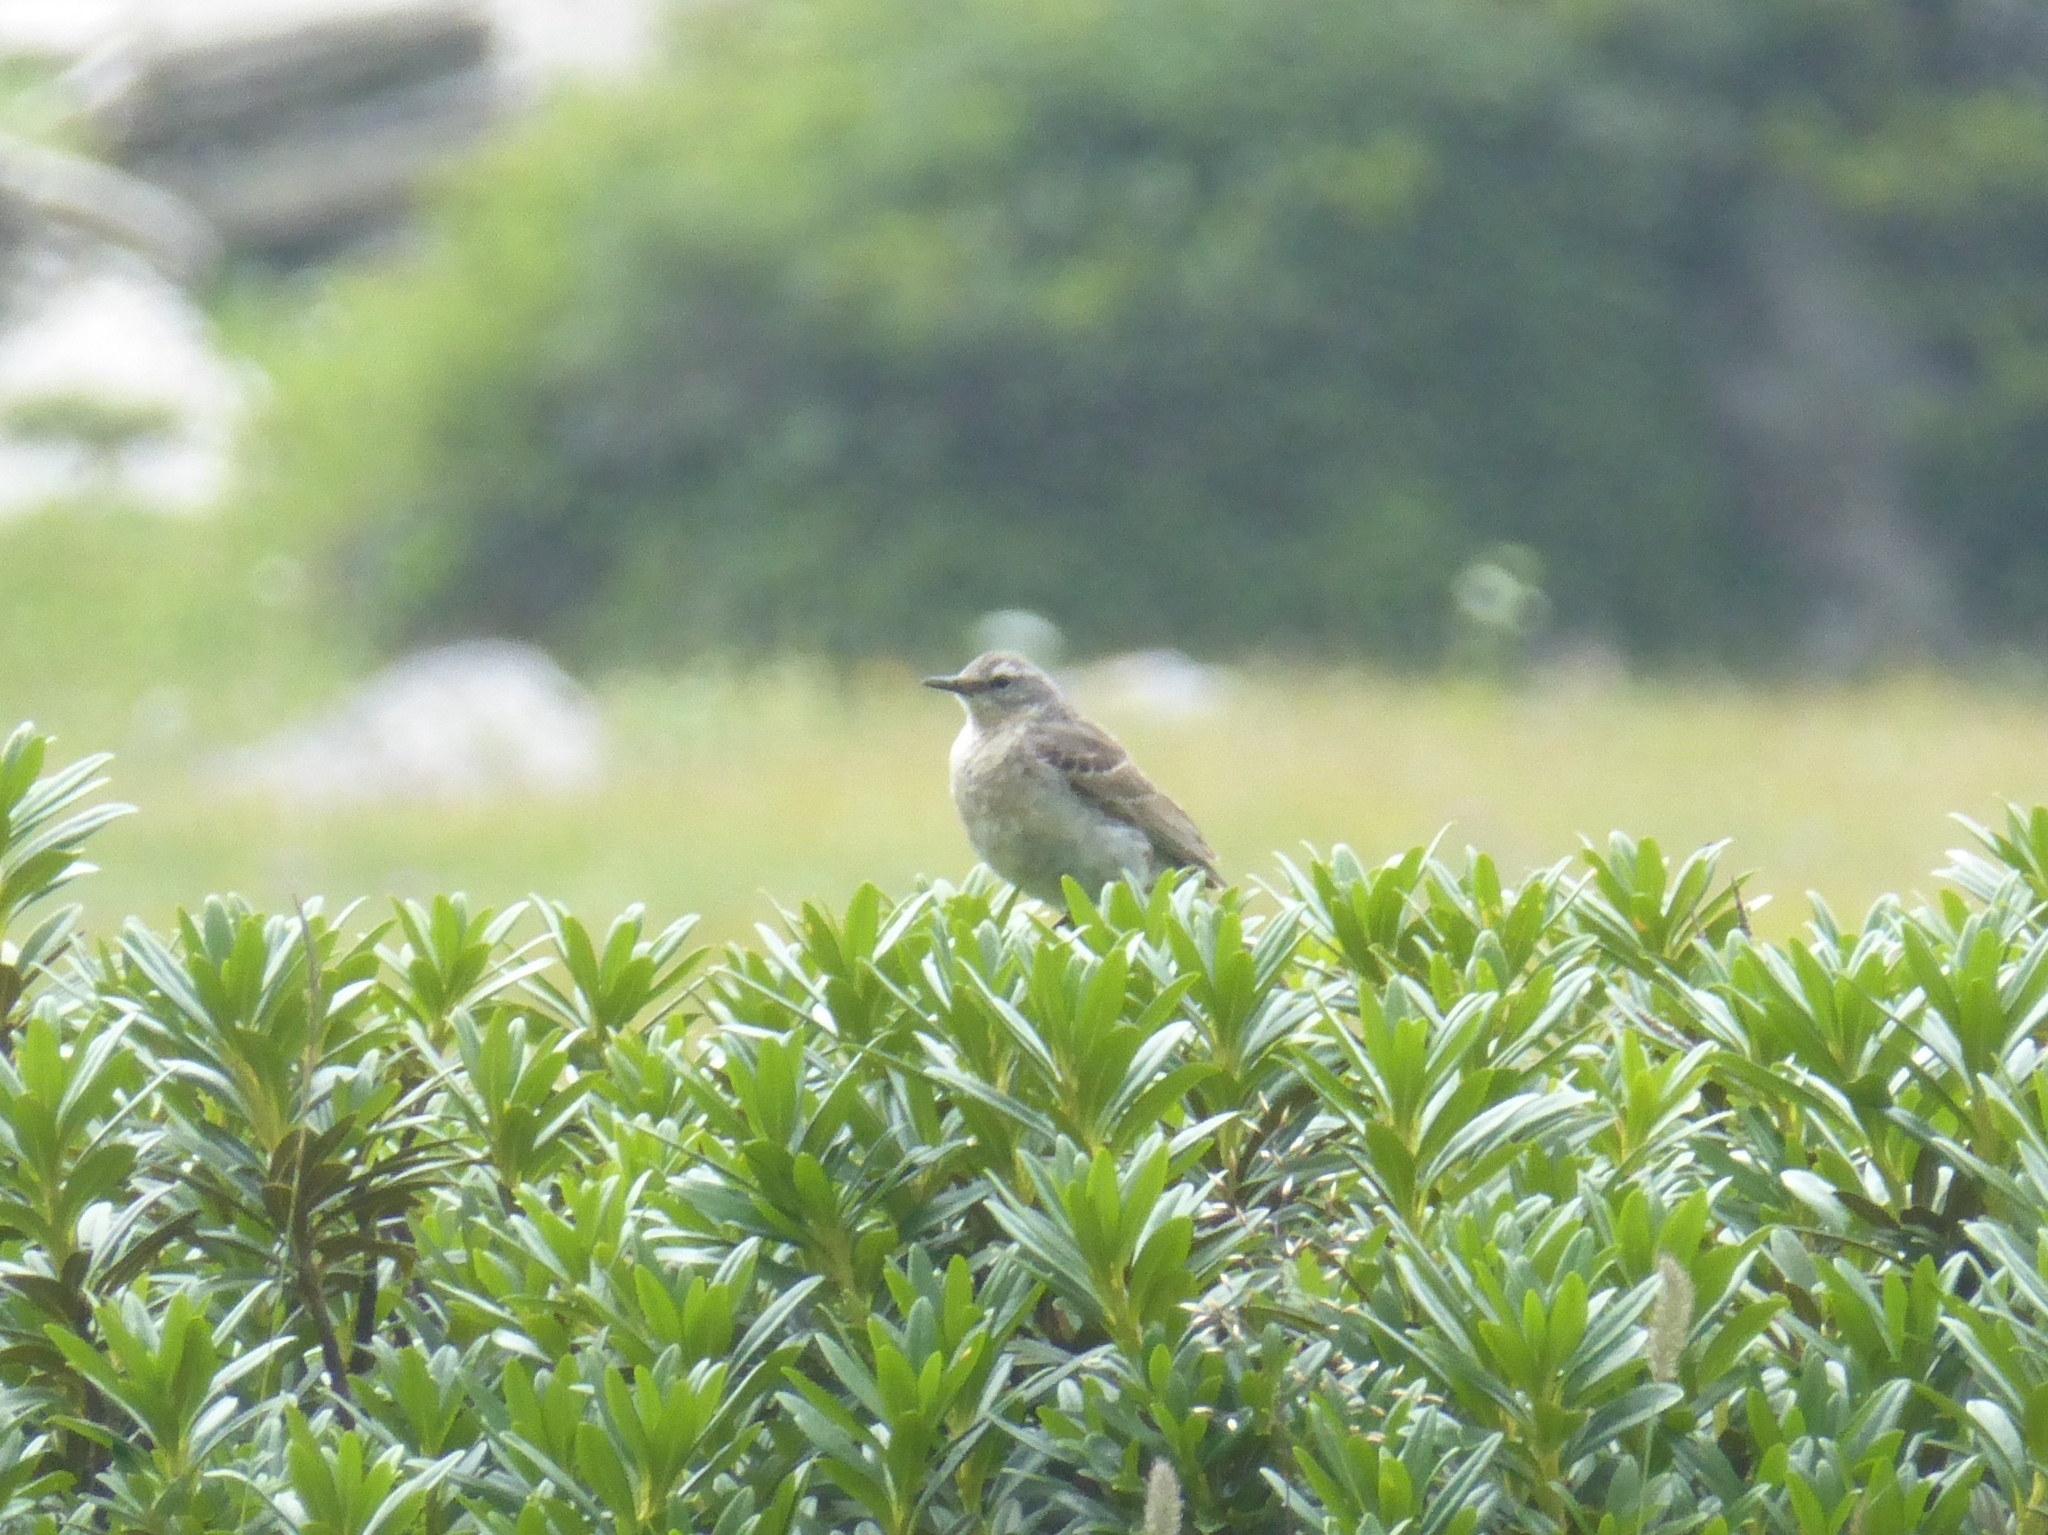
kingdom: Animalia
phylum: Chordata
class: Aves
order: Passeriformes
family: Motacillidae
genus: Anthus
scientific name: Anthus spinoletta
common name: Water pipit
